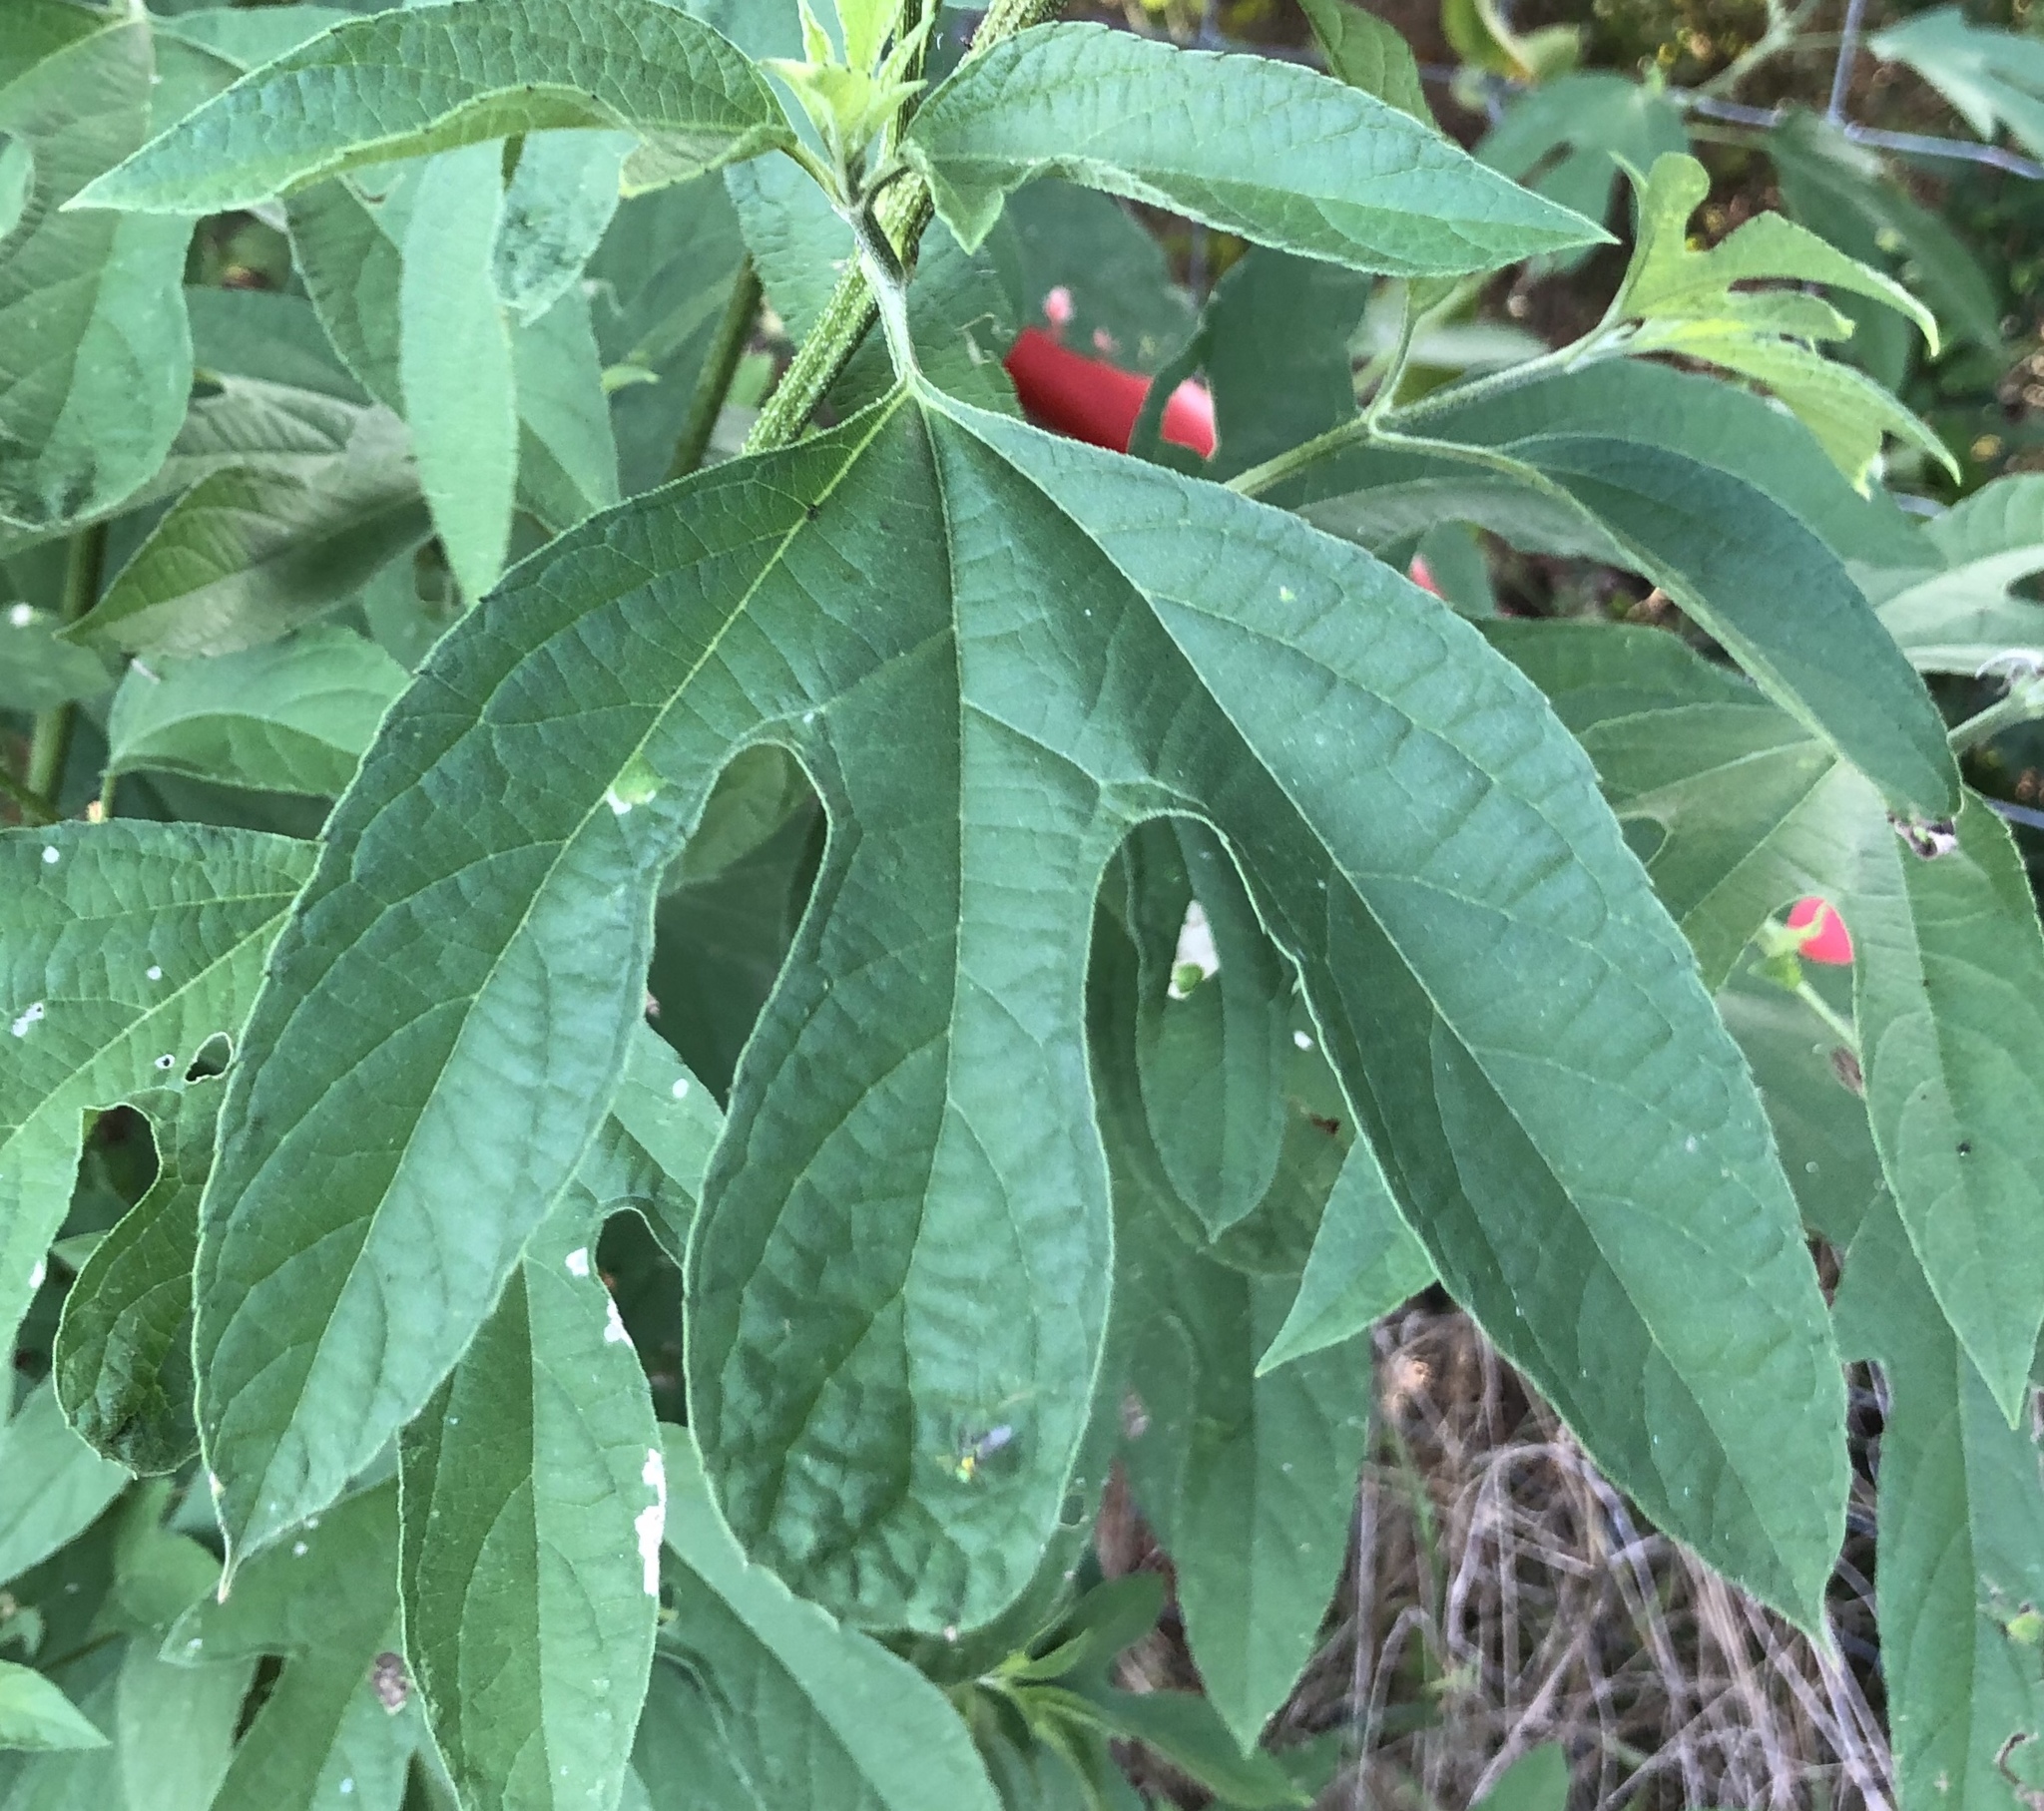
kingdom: Plantae
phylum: Tracheophyta
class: Magnoliopsida
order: Asterales
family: Asteraceae
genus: Ambrosia
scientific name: Ambrosia trifida
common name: Giant ragweed
